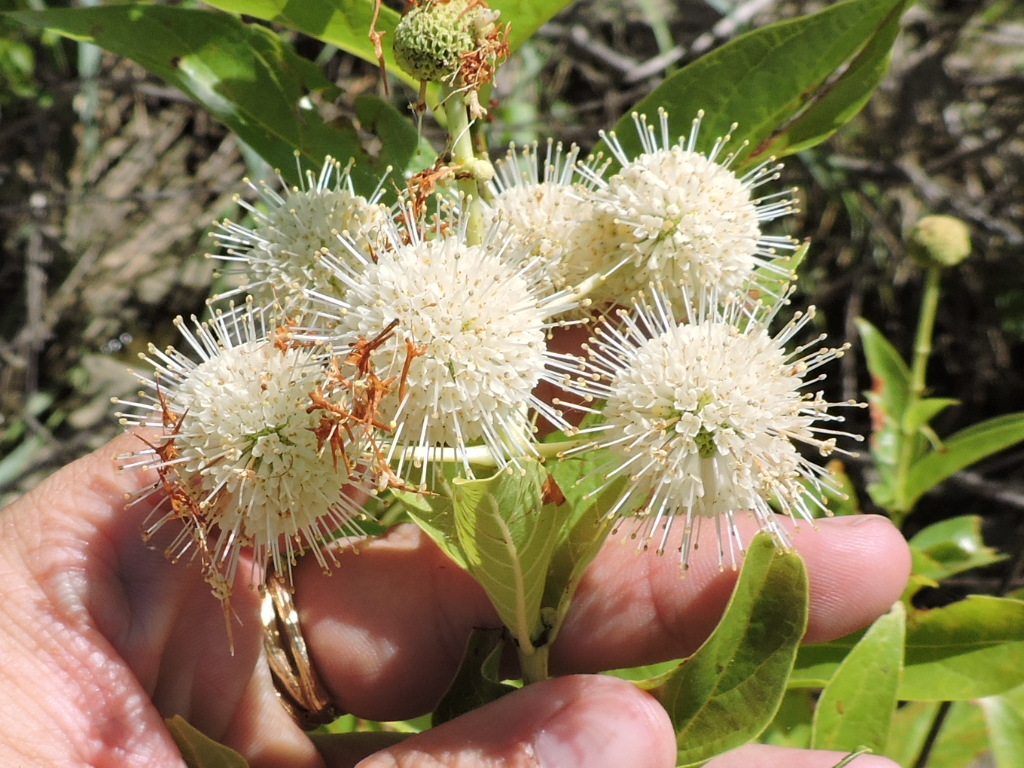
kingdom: Plantae
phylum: Tracheophyta
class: Magnoliopsida
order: Gentianales
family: Rubiaceae
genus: Cephalanthus
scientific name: Cephalanthus occidentalis
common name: Button-willow
